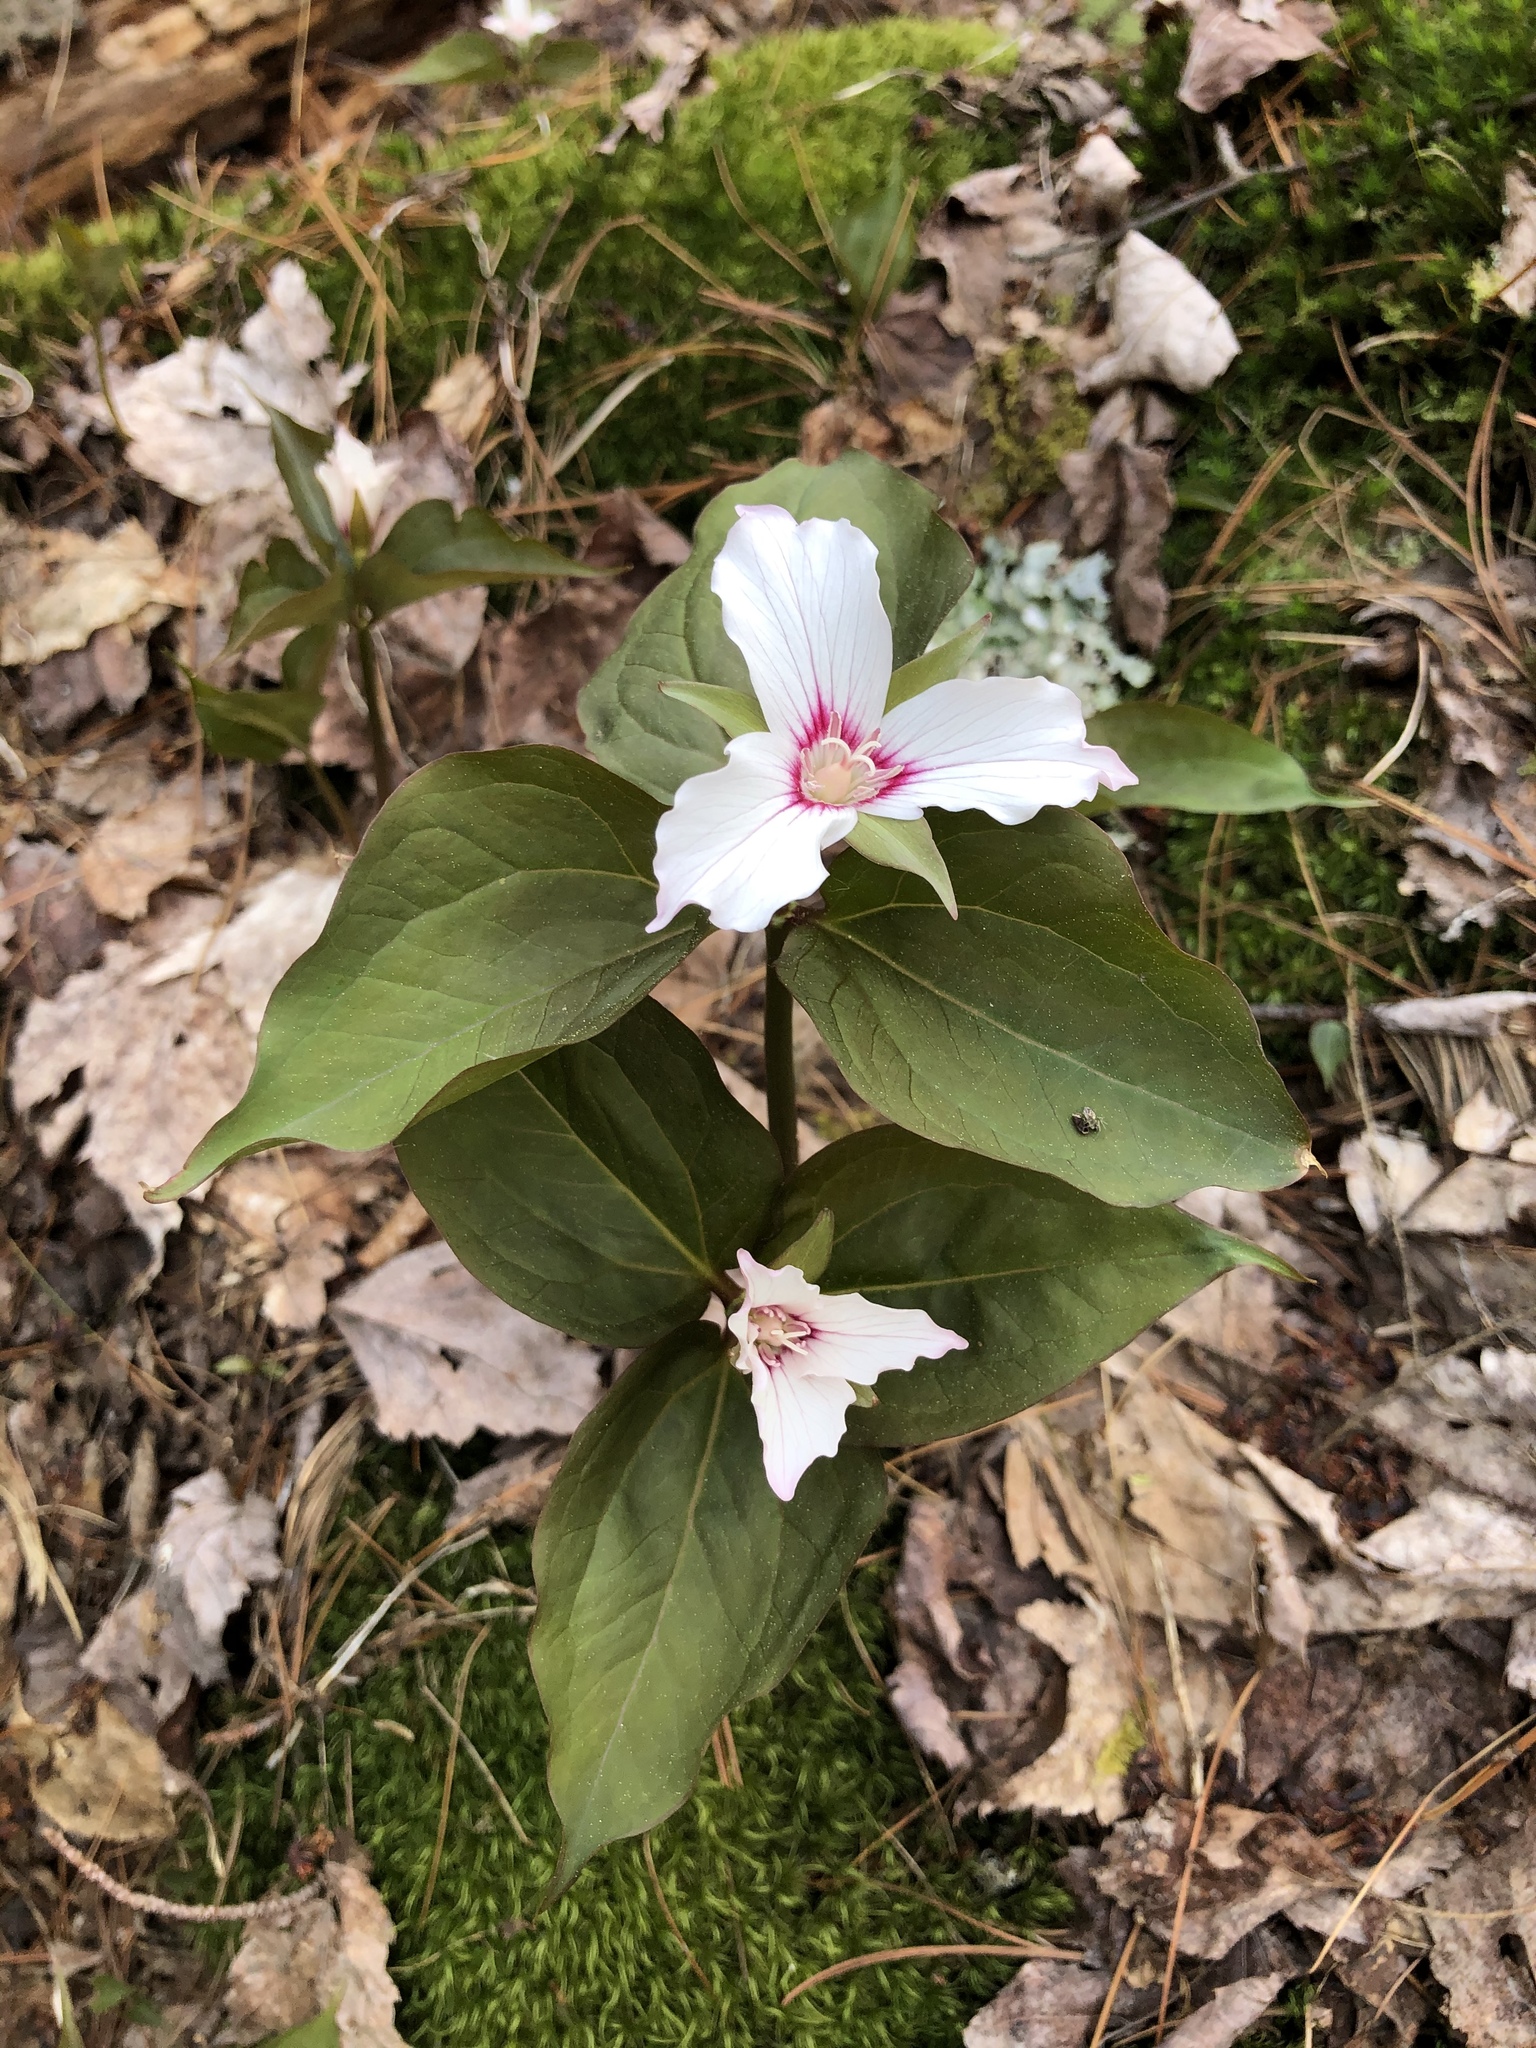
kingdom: Plantae
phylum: Tracheophyta
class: Liliopsida
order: Liliales
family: Melanthiaceae
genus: Trillium
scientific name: Trillium undulatum
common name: Paint trillium
